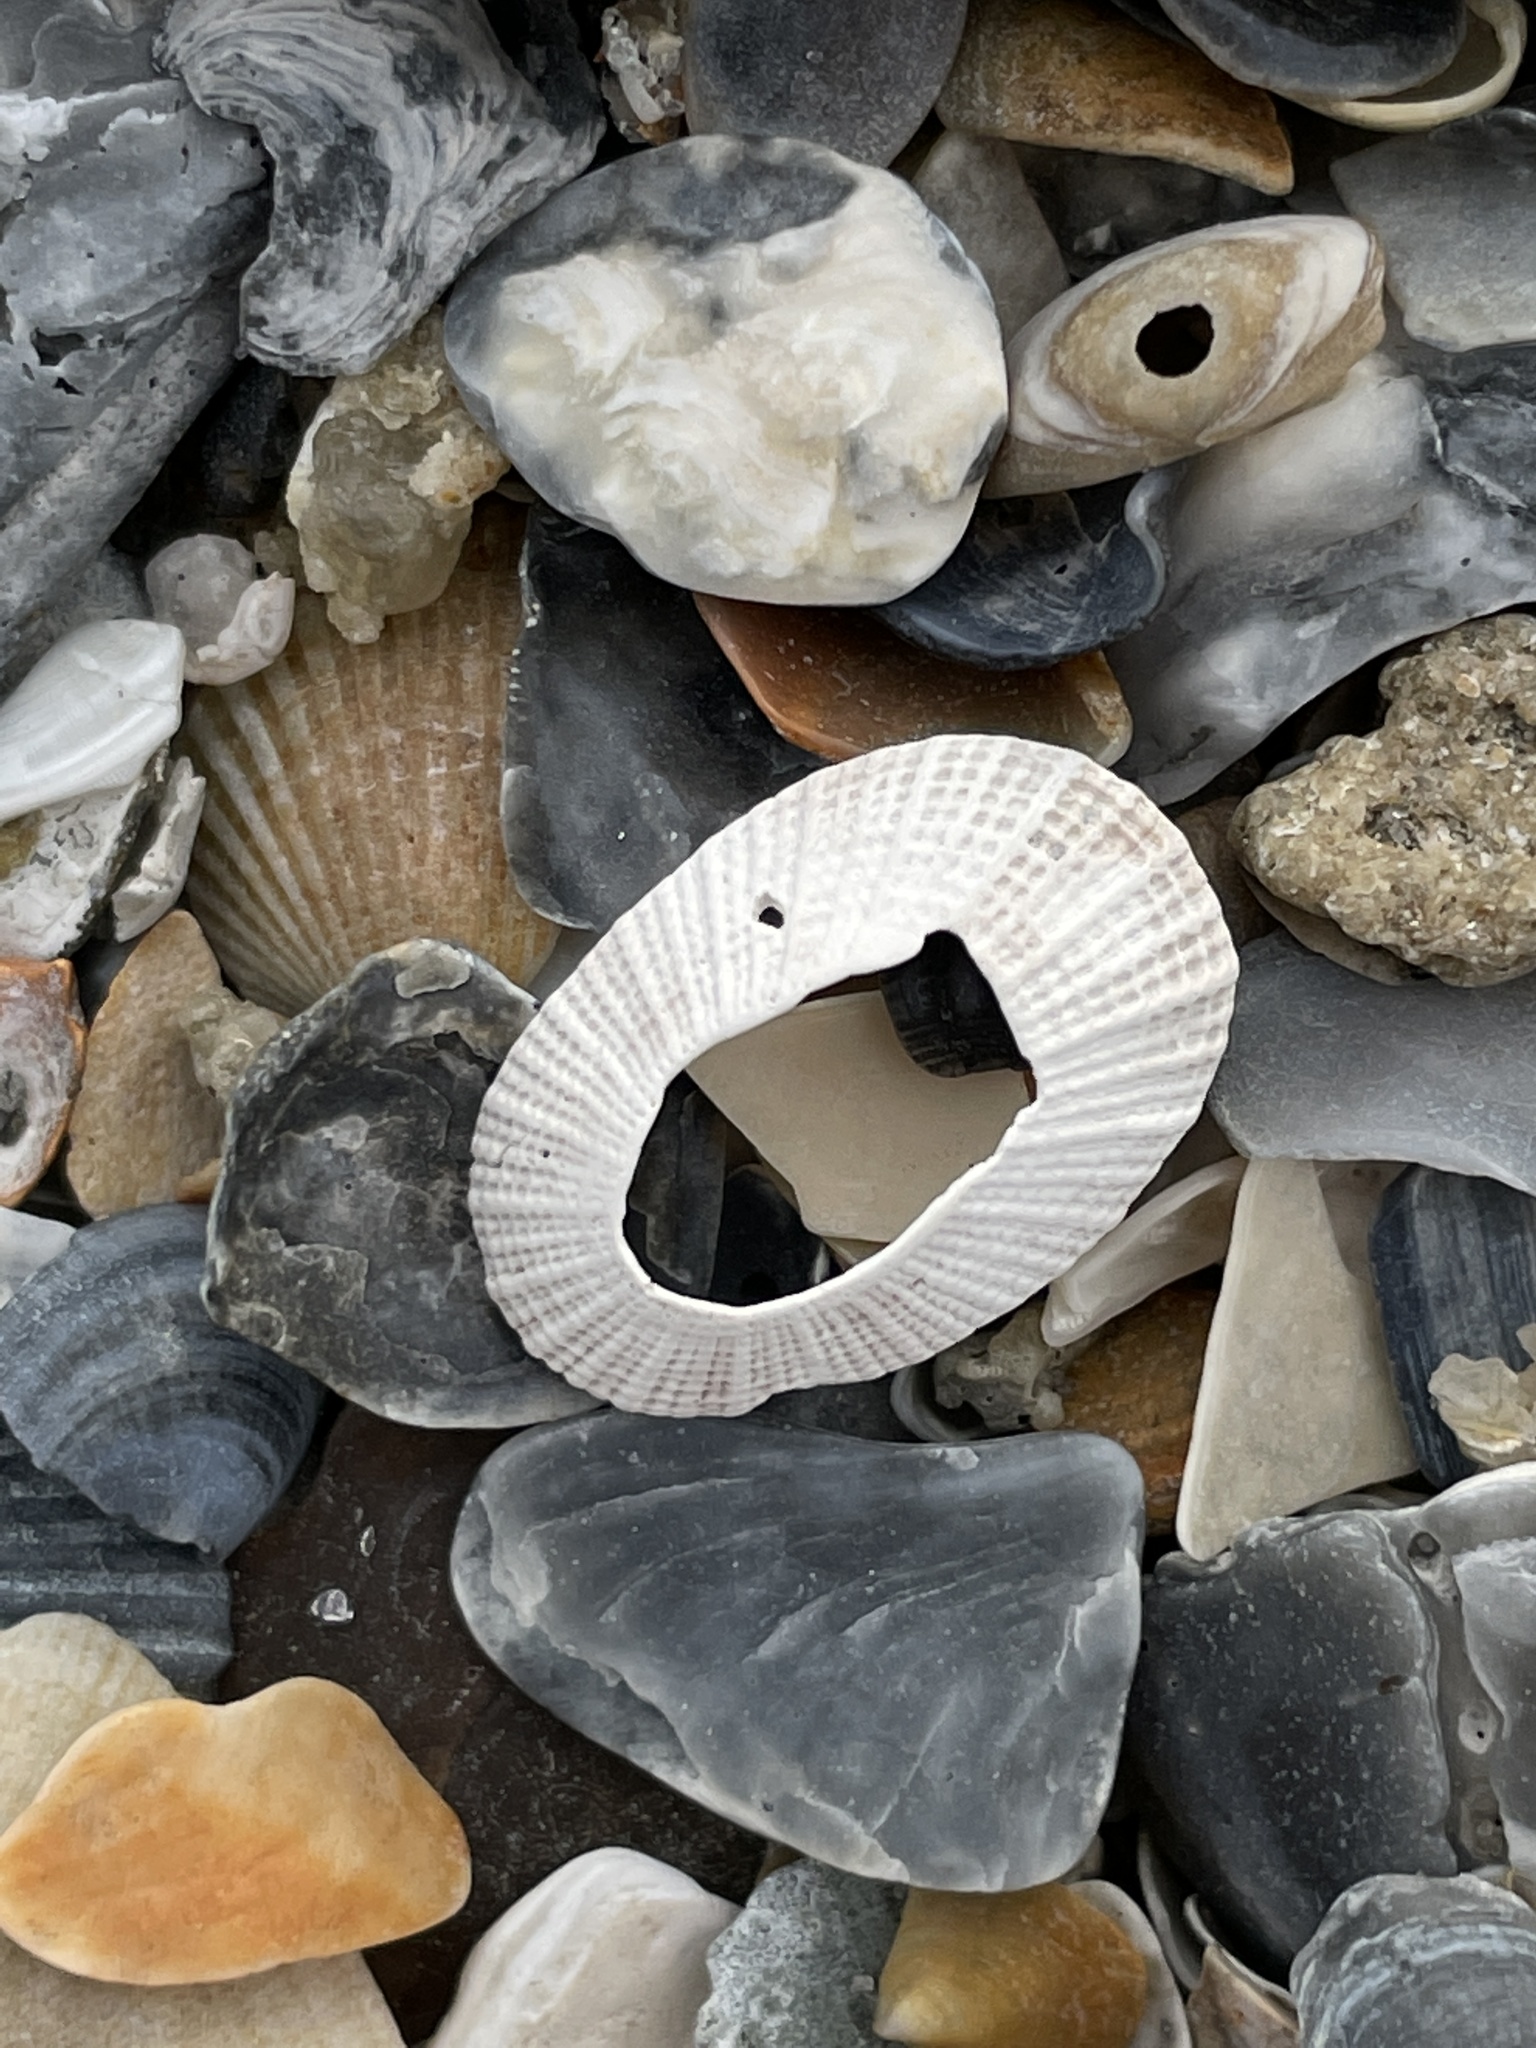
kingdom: Animalia
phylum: Mollusca
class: Gastropoda
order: Lepetellida
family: Fissurellidae
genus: Diodora
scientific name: Diodora cayenensis
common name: Cayenne keyhole limpet
